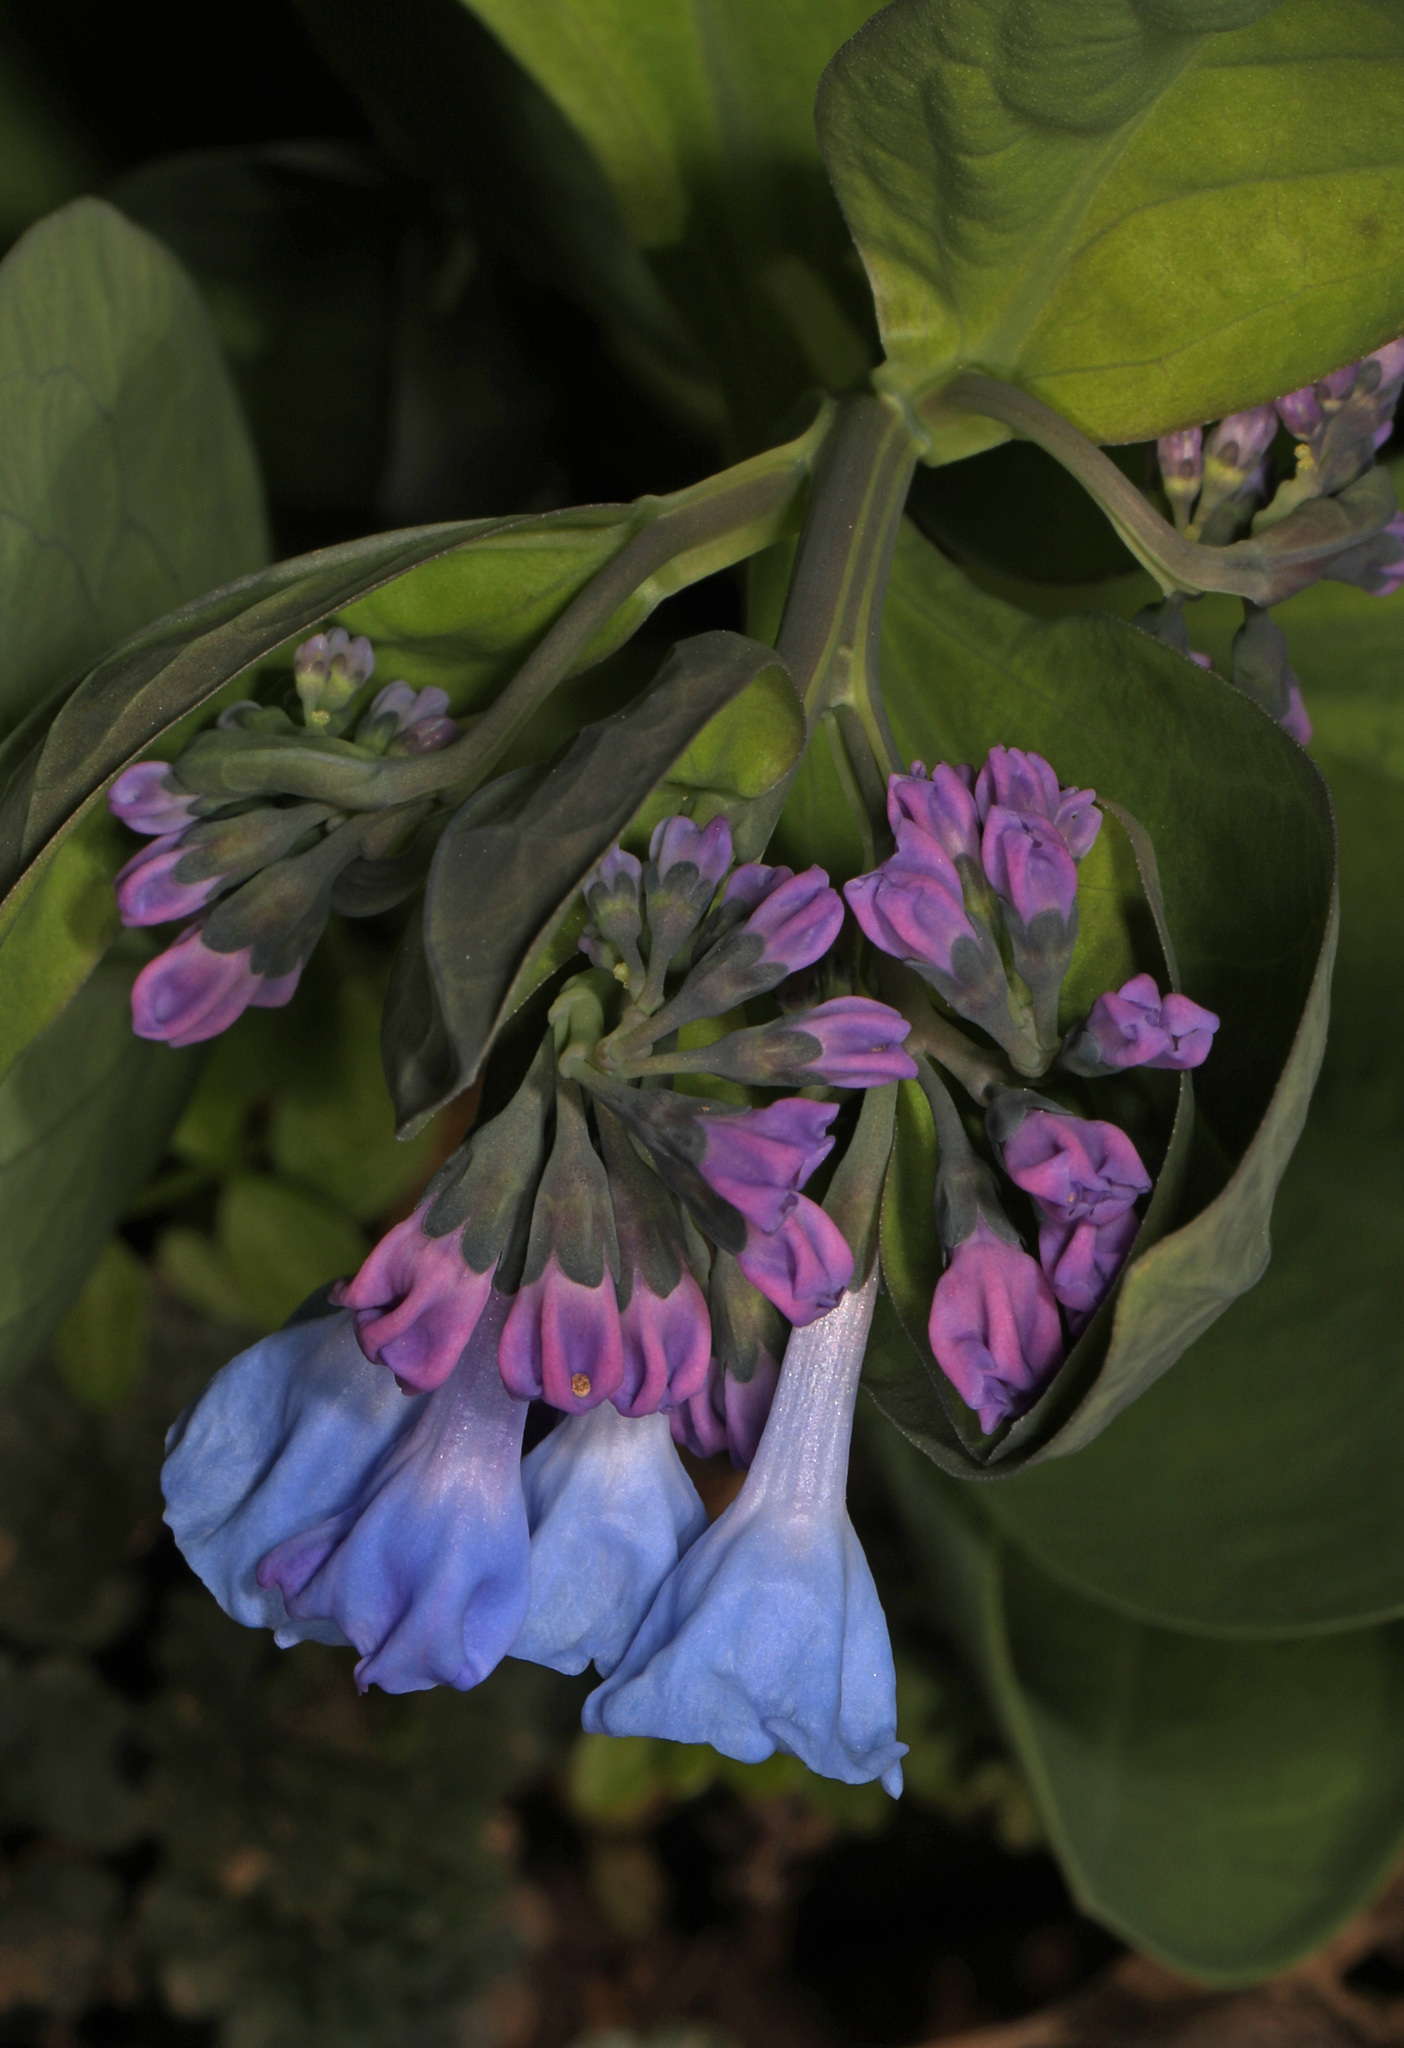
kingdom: Plantae
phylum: Tracheophyta
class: Magnoliopsida
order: Boraginales
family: Boraginaceae
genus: Mertensia
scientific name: Mertensia virginica
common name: Virginia bluebells
